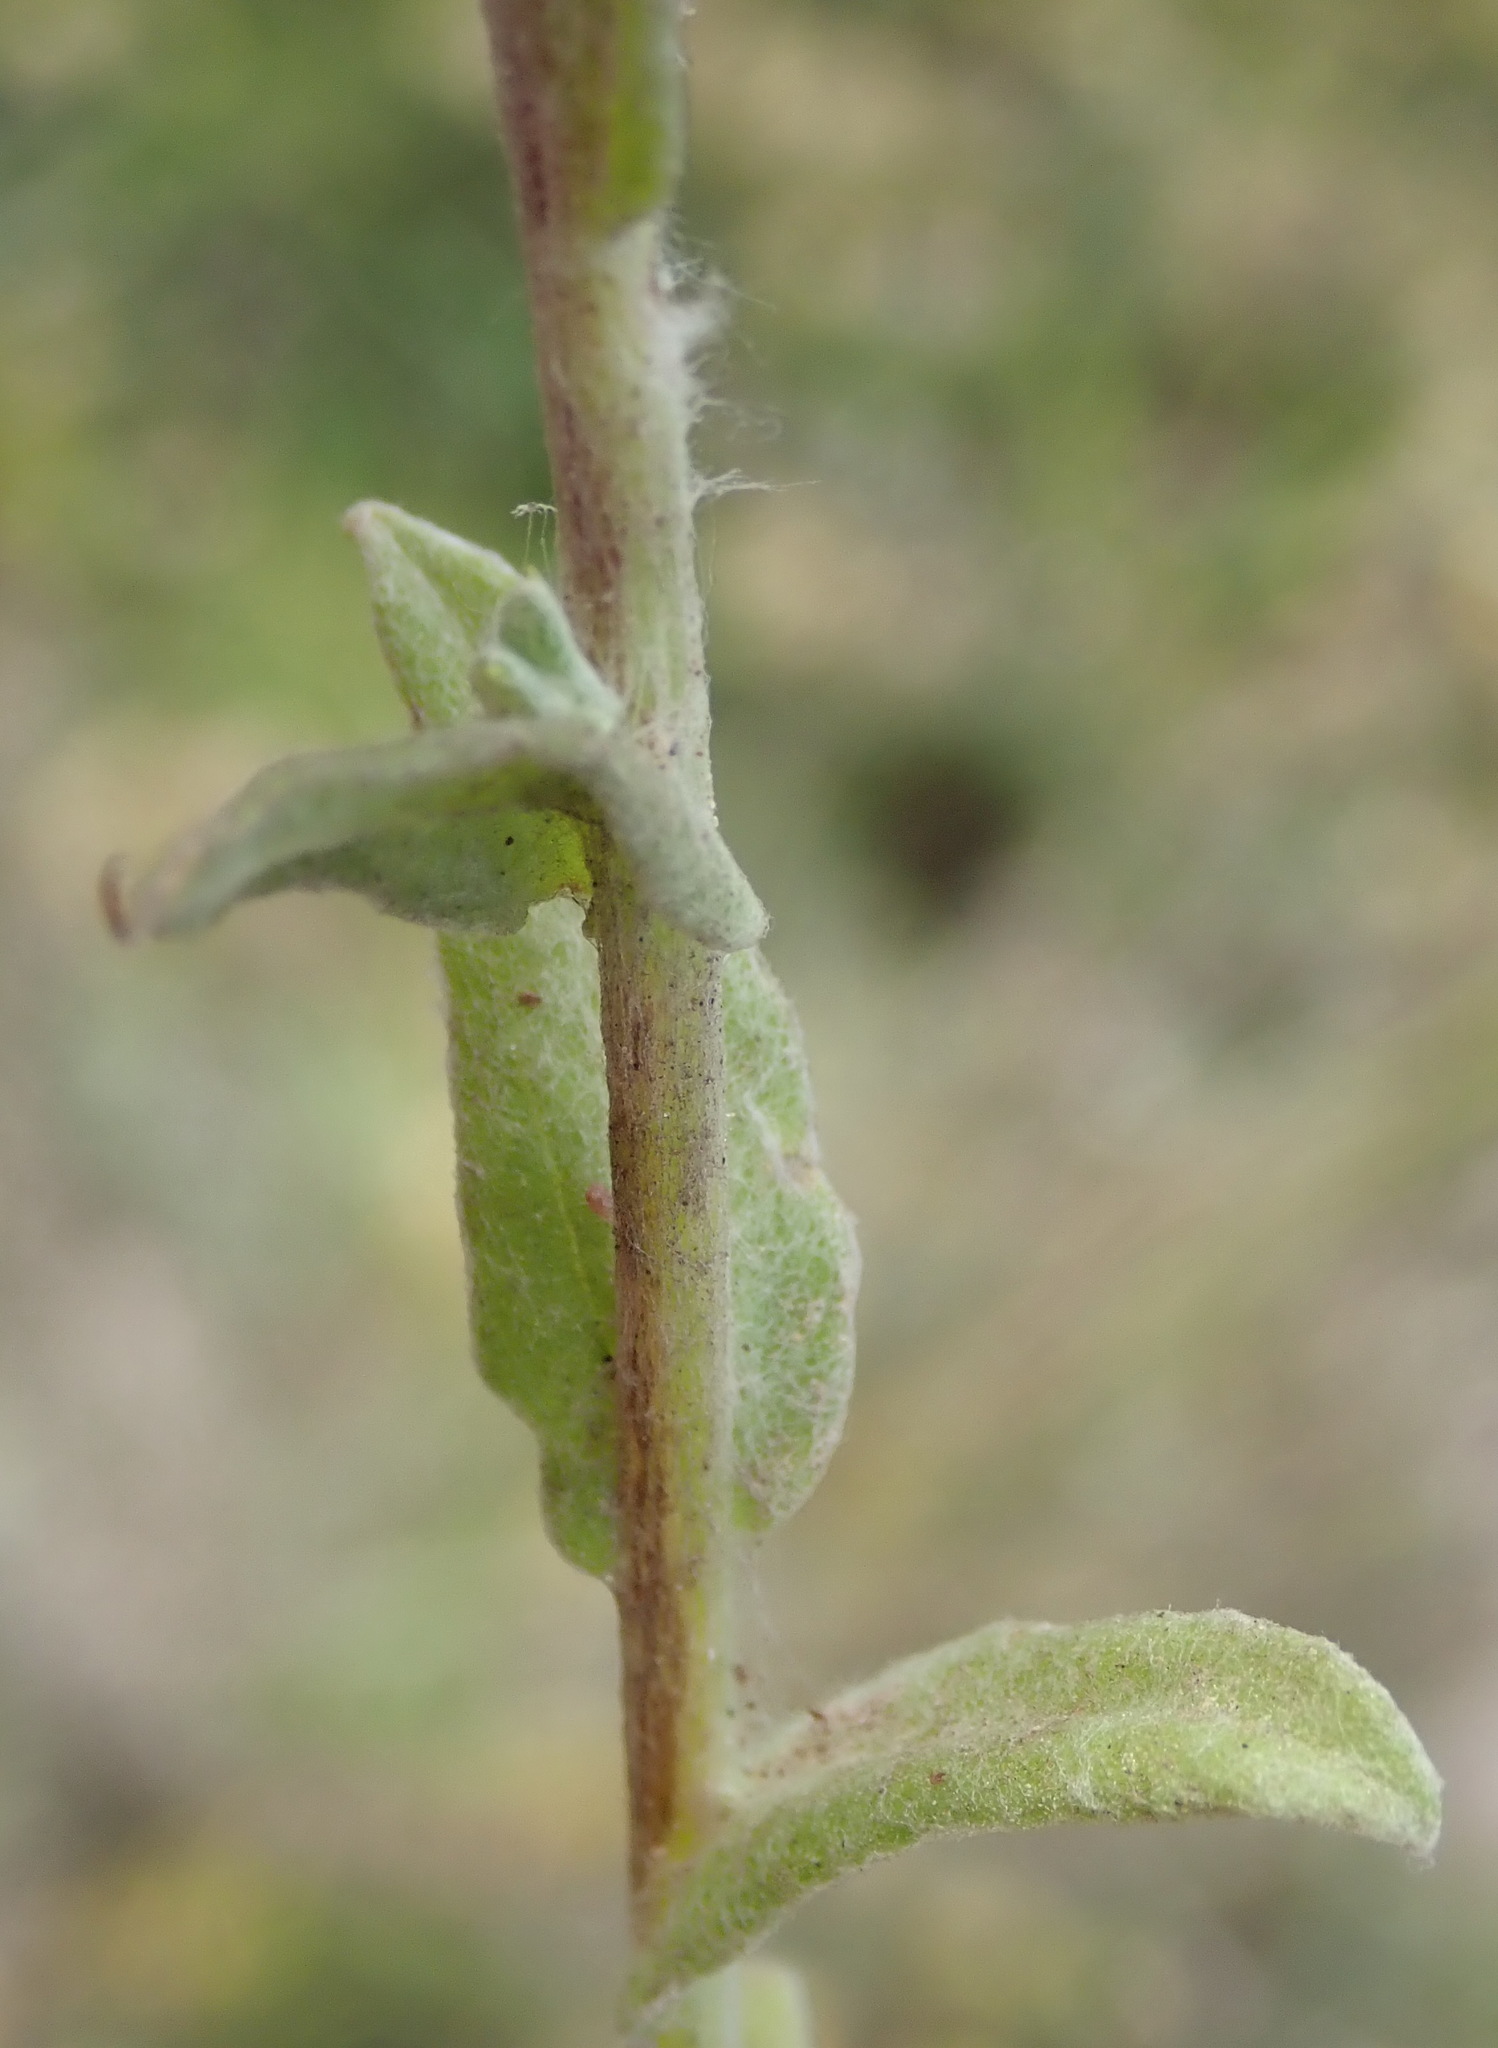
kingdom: Plantae
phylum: Tracheophyta
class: Magnoliopsida
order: Asterales
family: Asteraceae
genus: Helichrysum
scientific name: Helichrysum odoratissimum
